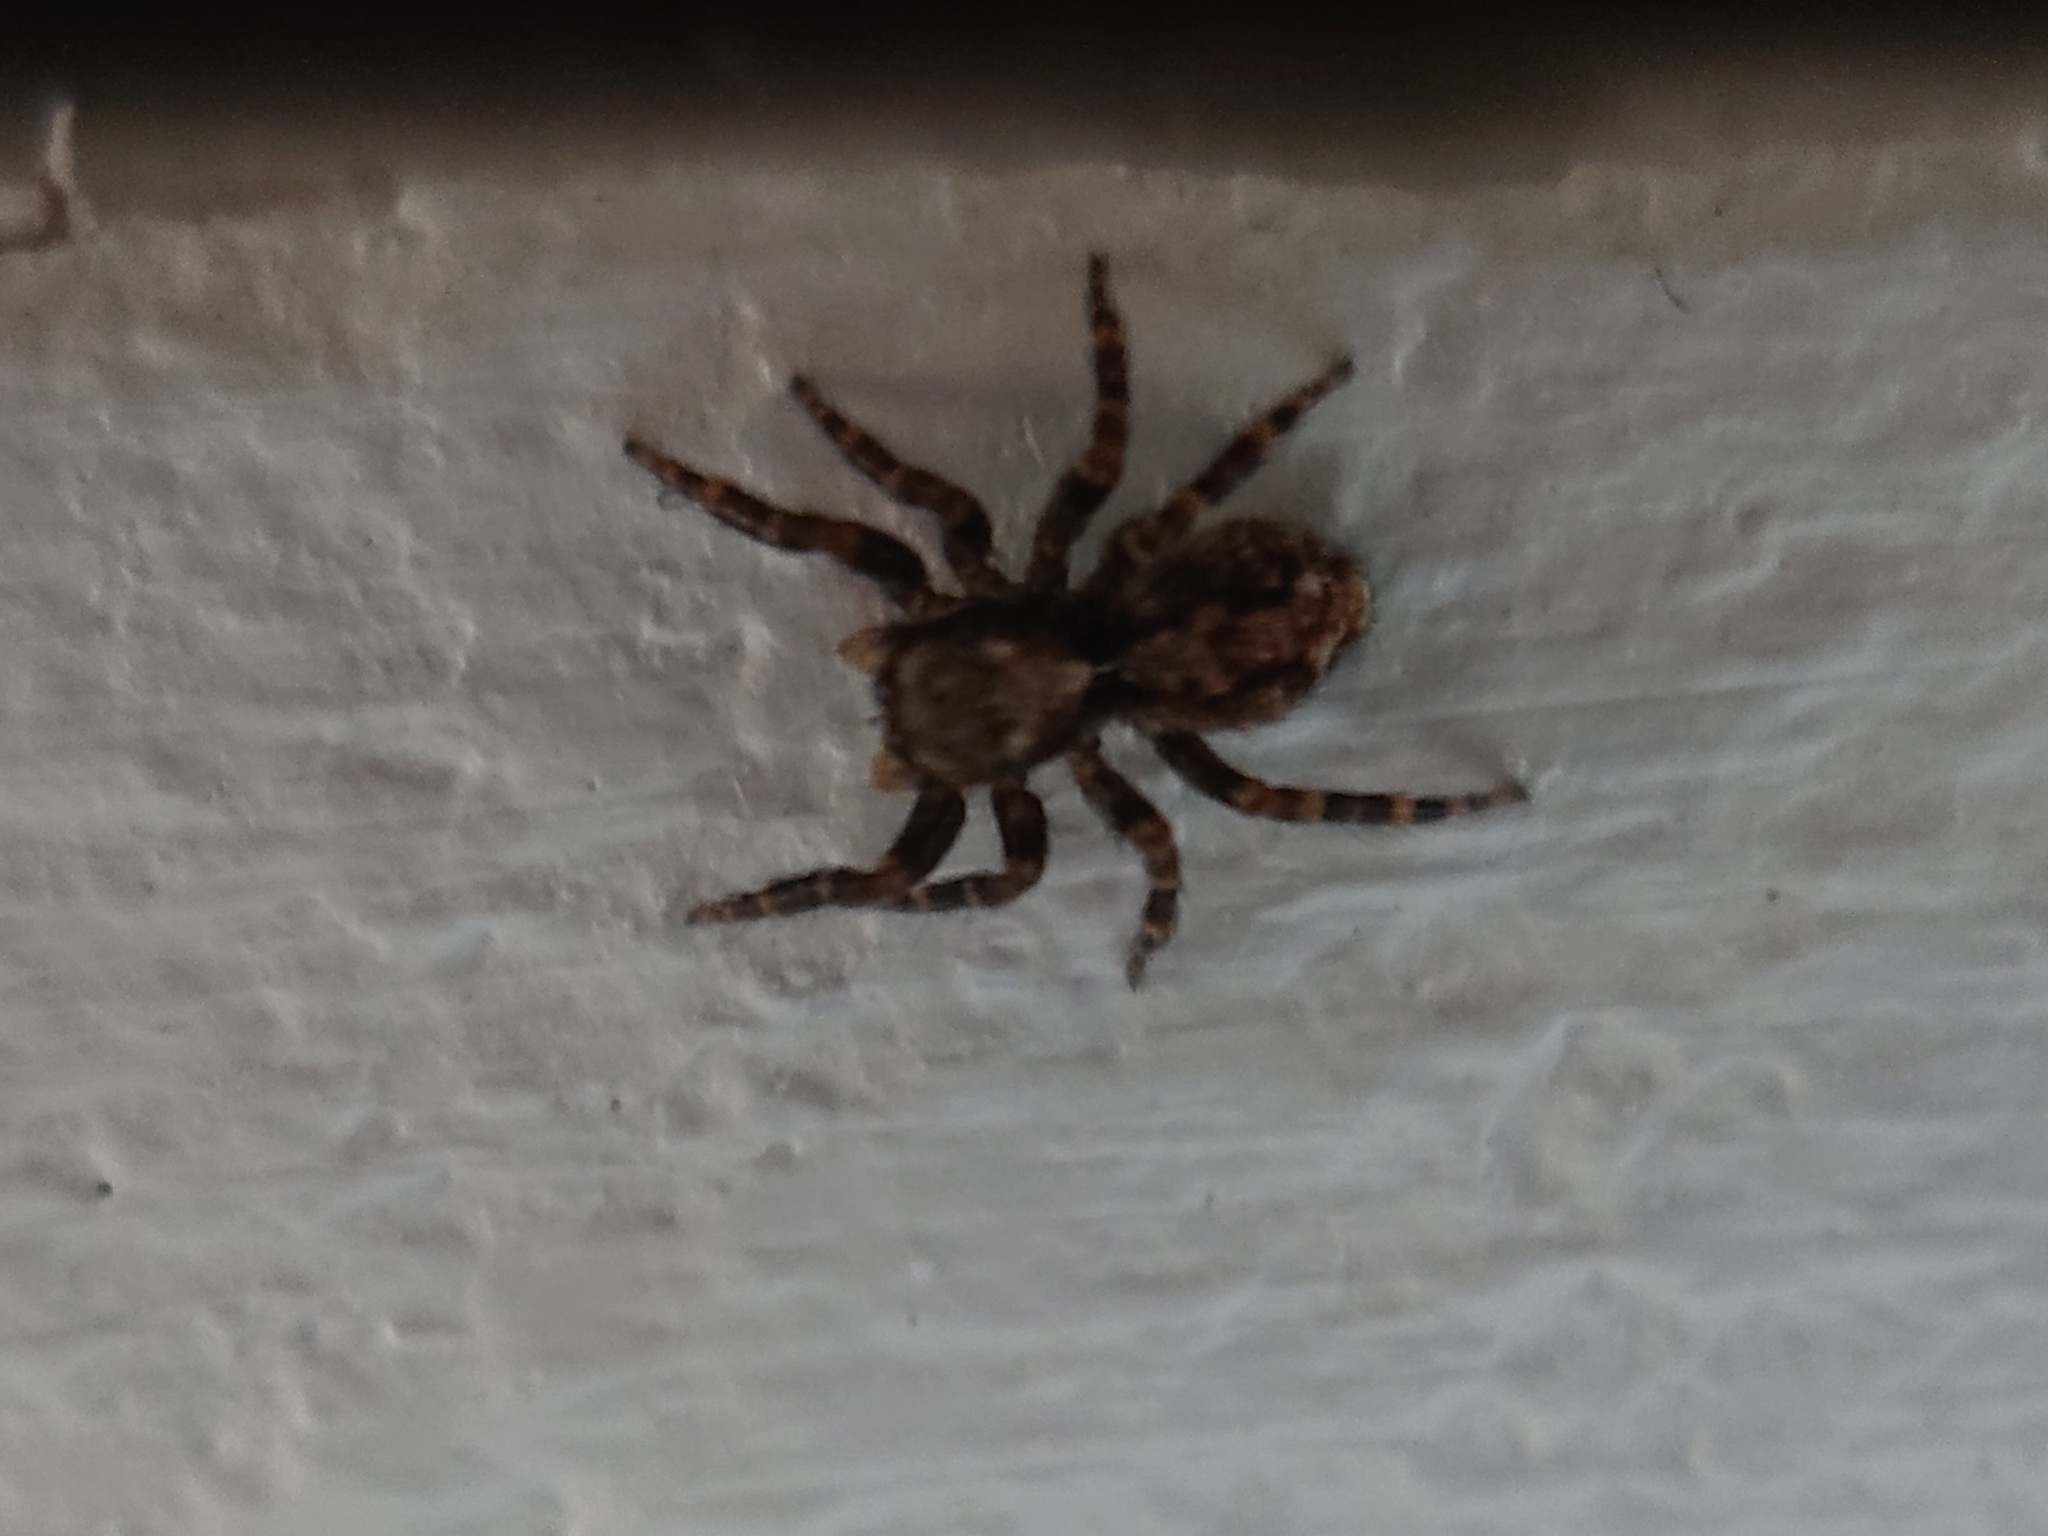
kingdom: Animalia
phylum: Arthropoda
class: Arachnida
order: Araneae
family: Salticidae
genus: Pseudeuophrys
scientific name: Pseudeuophrys lanigera
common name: Jumping spider
